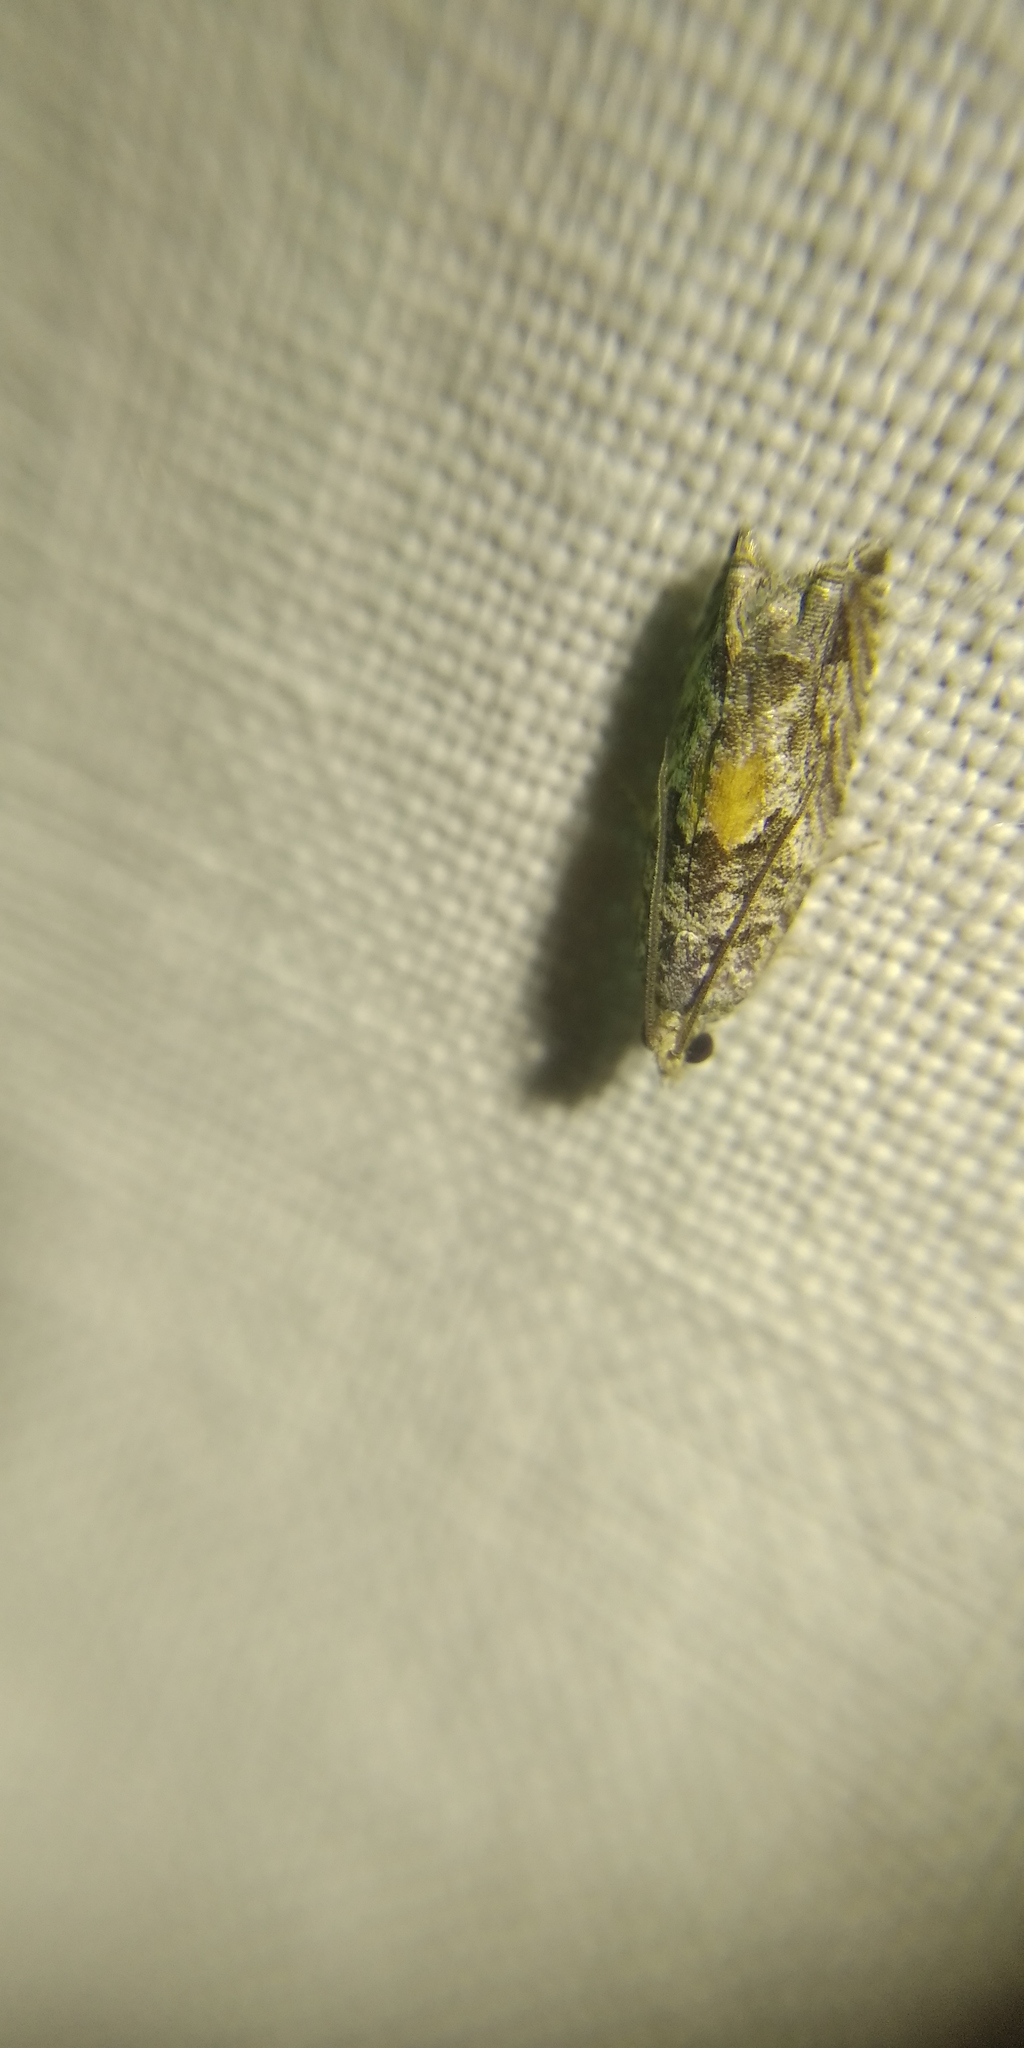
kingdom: Animalia
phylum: Arthropoda
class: Insecta
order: Lepidoptera
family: Tortricidae
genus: Epinotia
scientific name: Epinotia nisella
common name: Grey poplar bell
